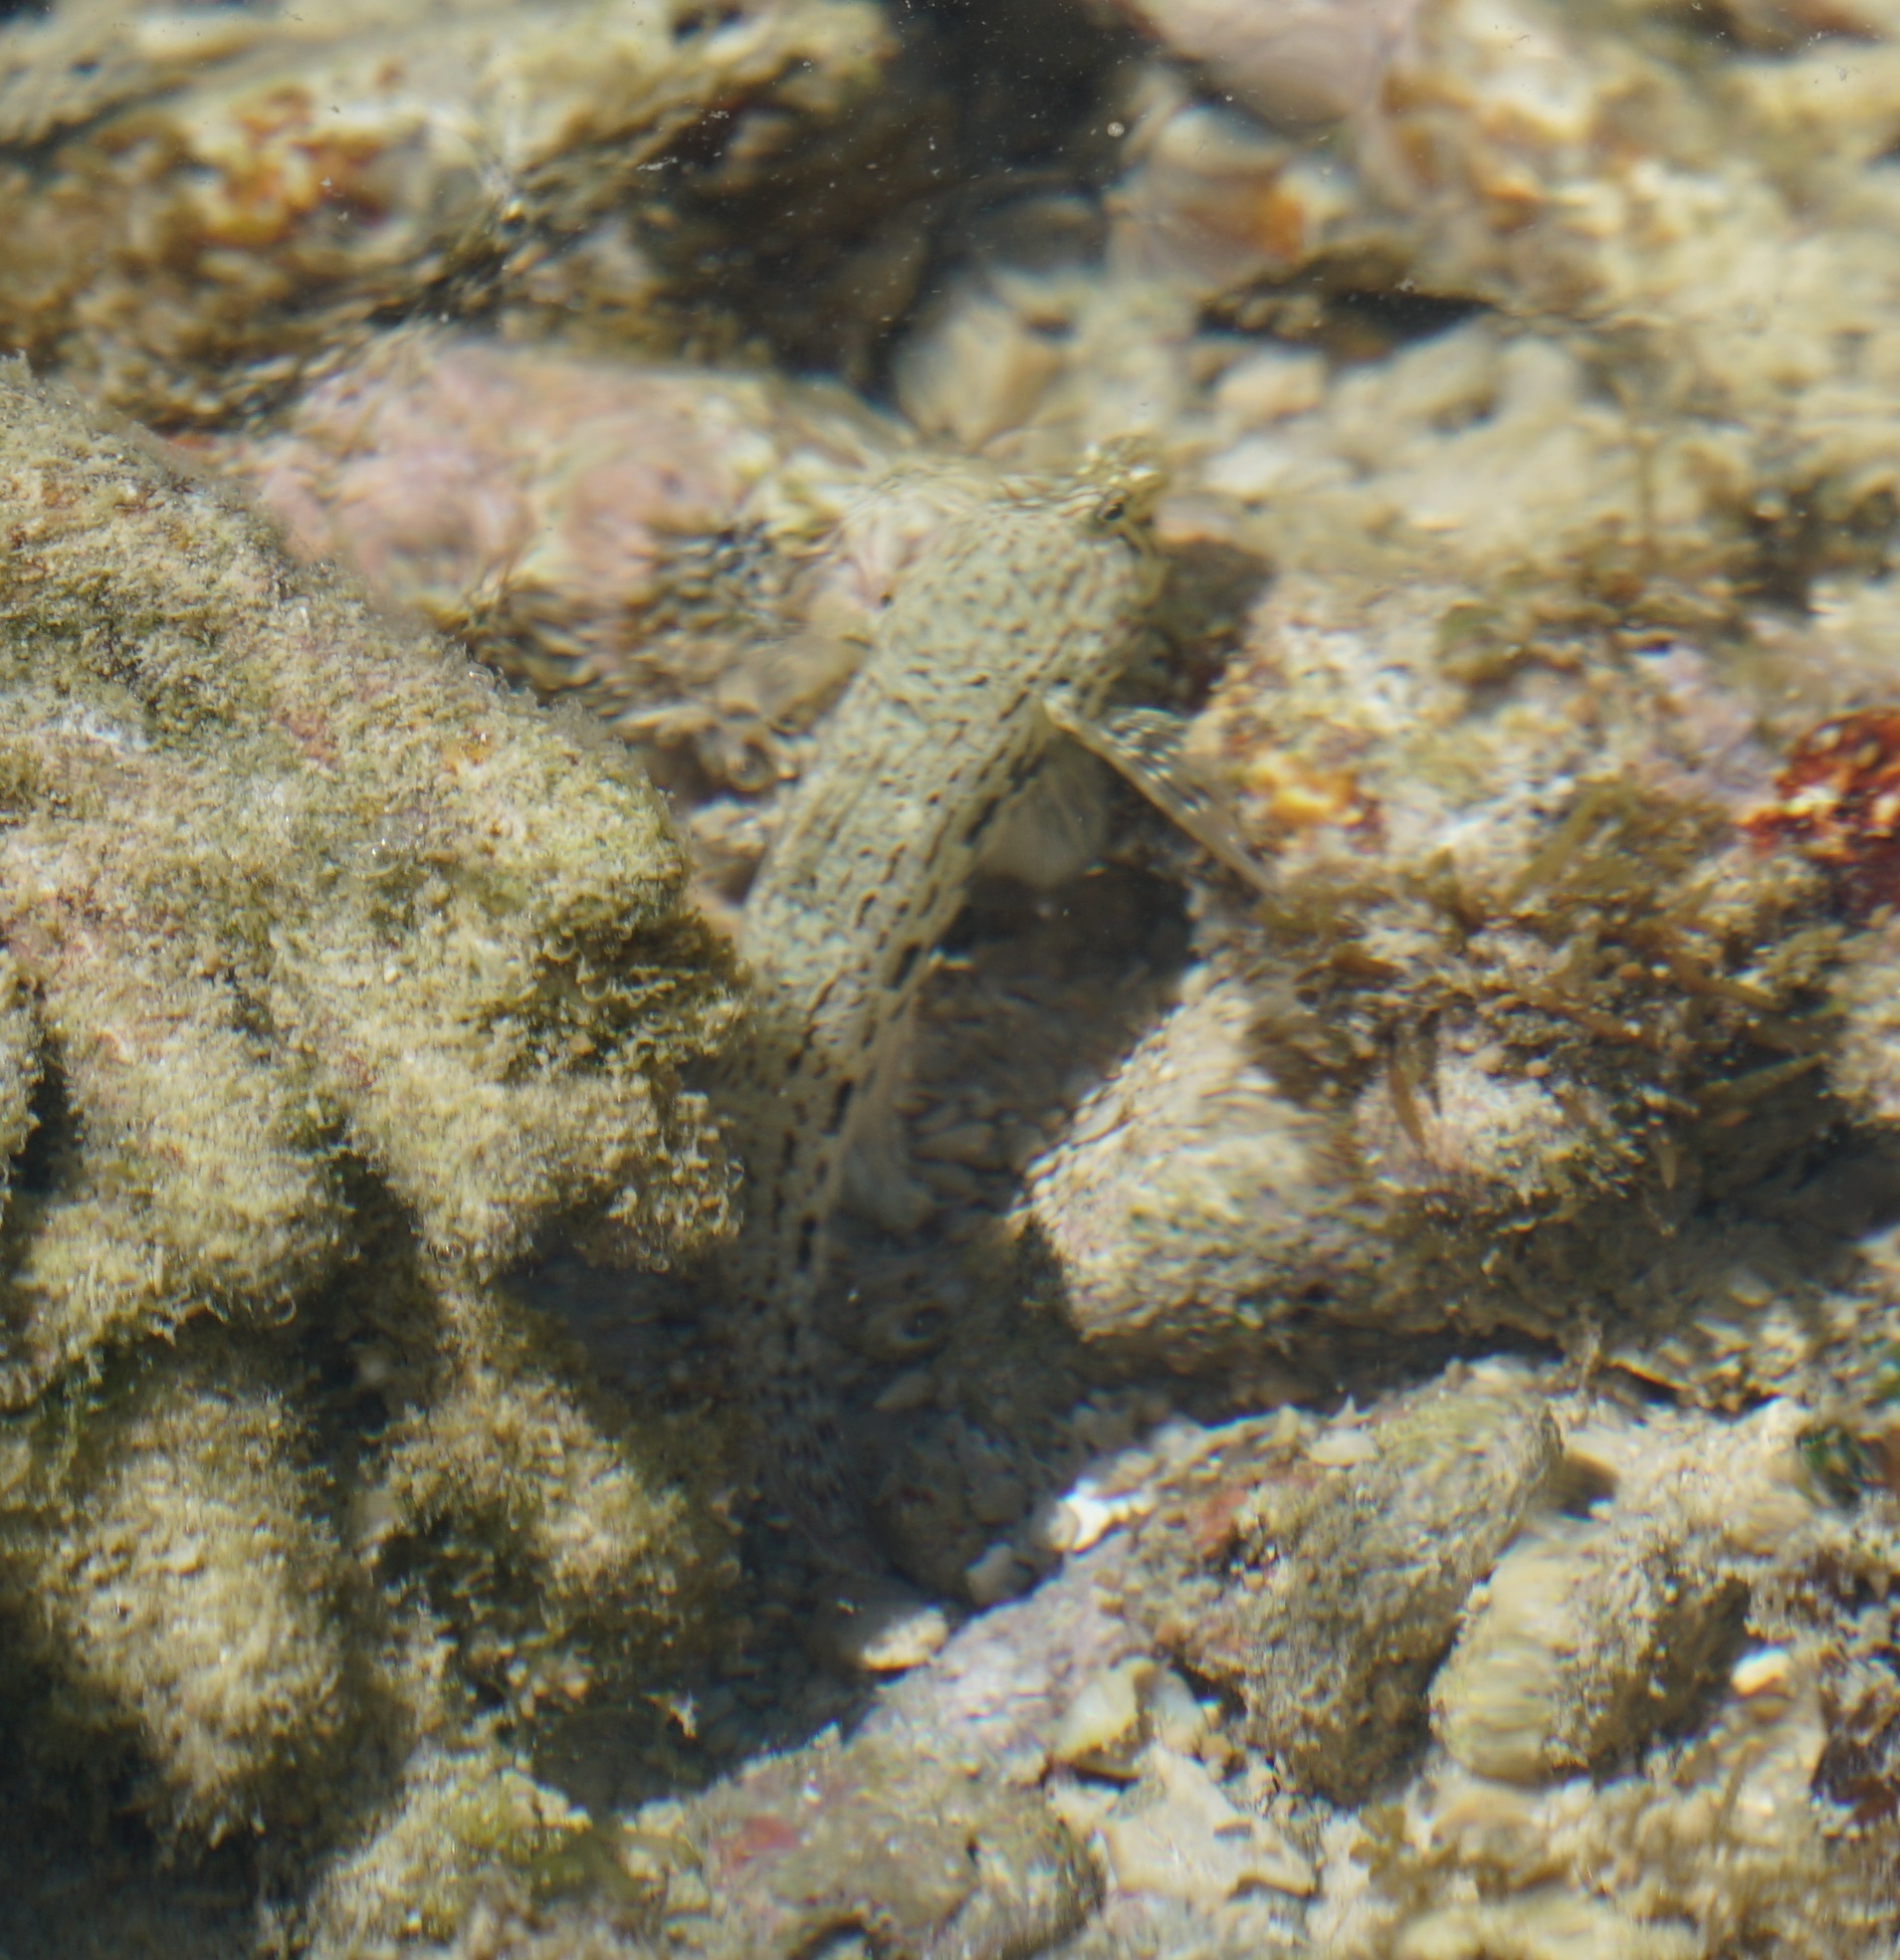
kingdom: Animalia
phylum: Chordata
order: Perciformes
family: Gobiidae
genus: Istigobius
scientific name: Istigobius ornatus
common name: Ornate goby
